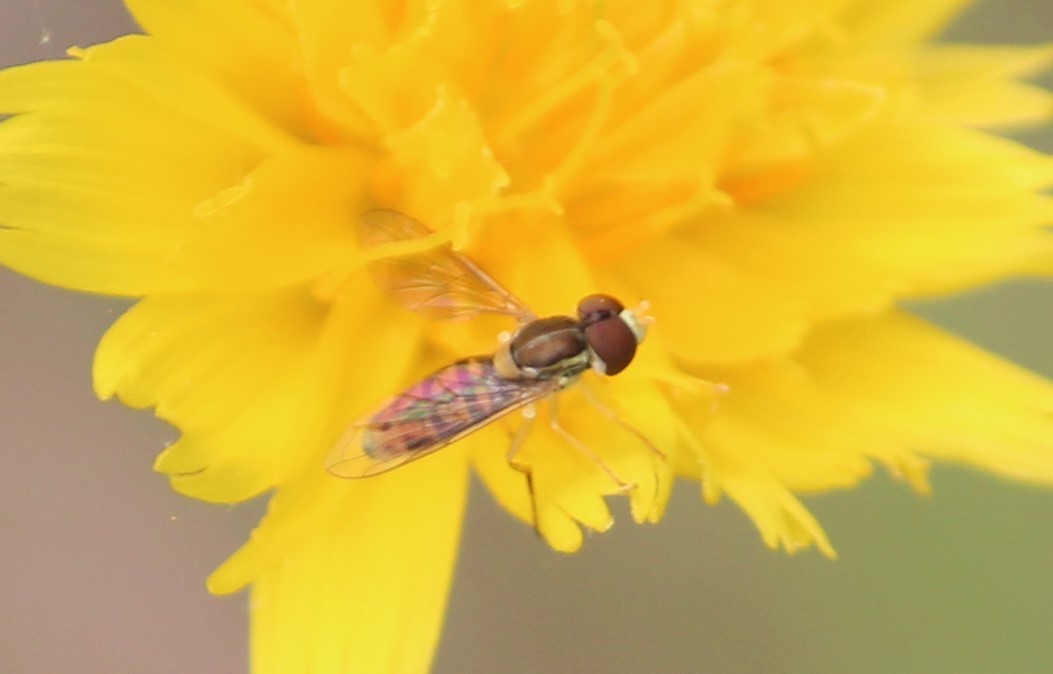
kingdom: Animalia
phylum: Arthropoda
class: Insecta
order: Diptera
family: Syrphidae
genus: Toxomerus
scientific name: Toxomerus marginatus
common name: Syrphid fly
